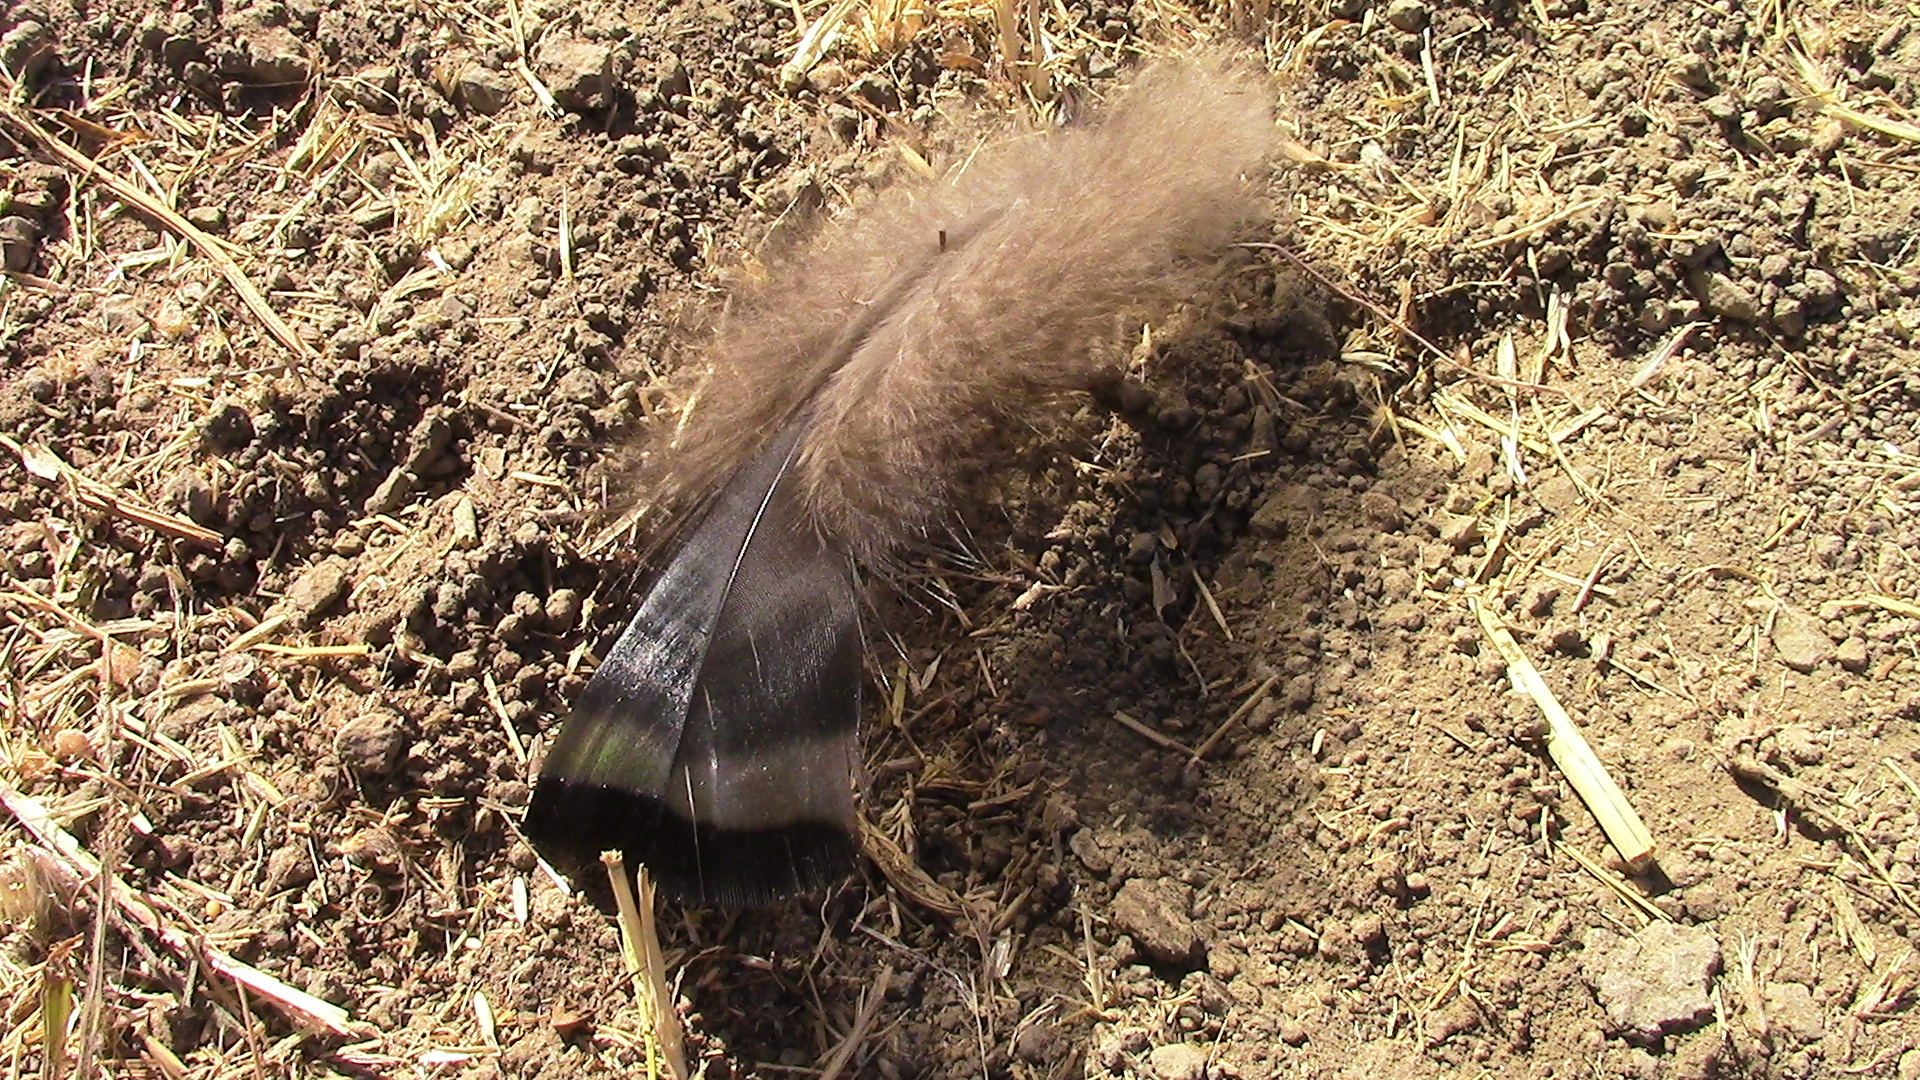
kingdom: Animalia
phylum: Chordata
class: Aves
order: Galliformes
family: Phasianidae
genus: Meleagris
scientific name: Meleagris gallopavo
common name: Wild turkey
